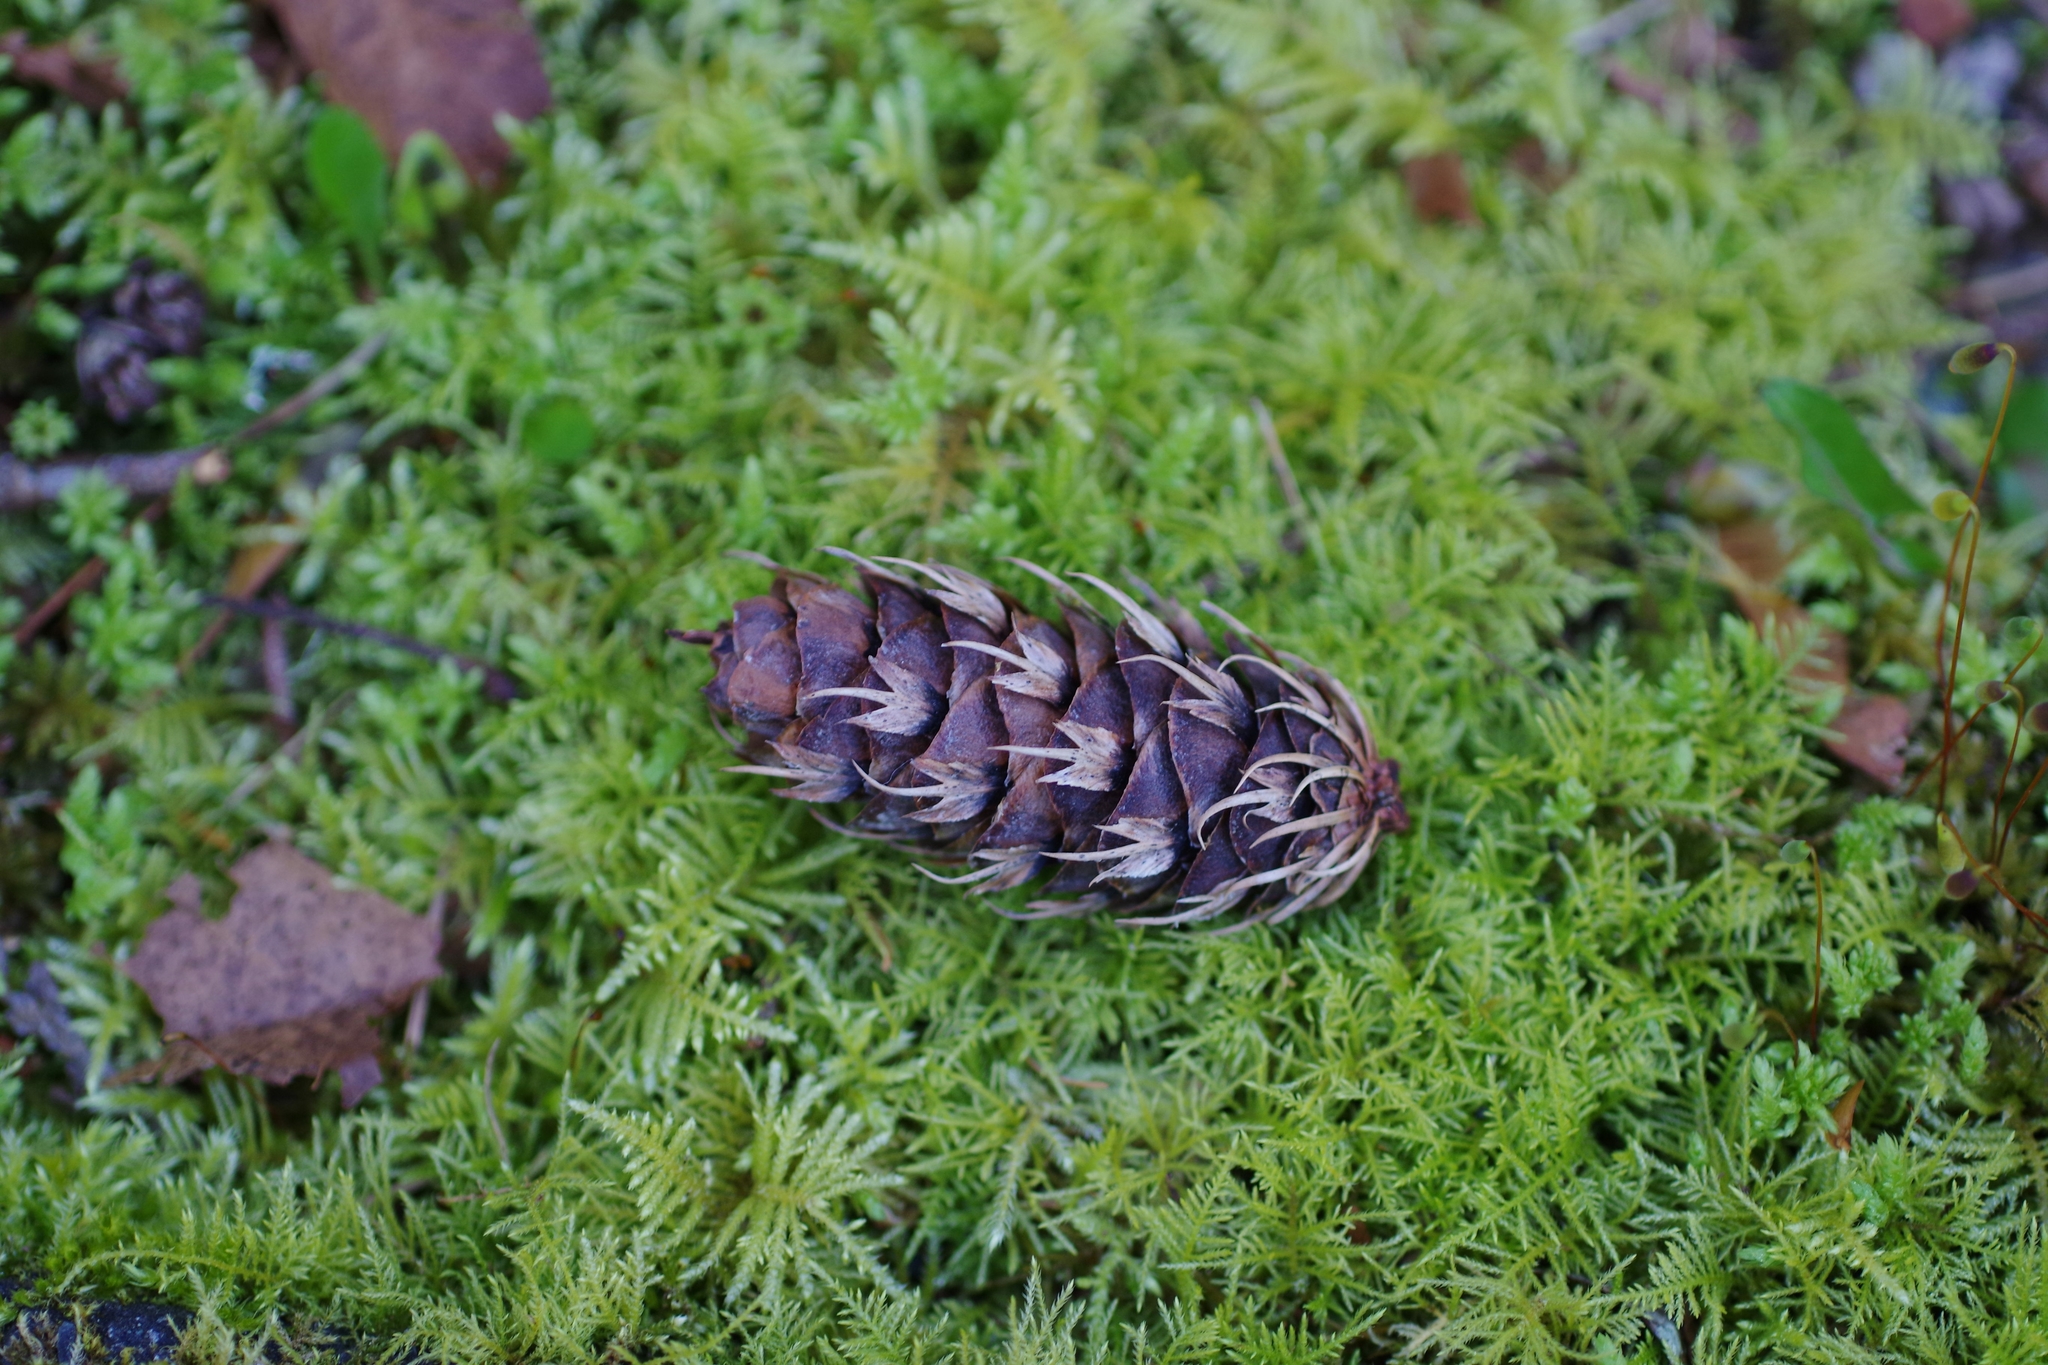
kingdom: Plantae
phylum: Tracheophyta
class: Pinopsida
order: Pinales
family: Pinaceae
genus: Pseudotsuga
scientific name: Pseudotsuga menziesii
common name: Douglas fir
